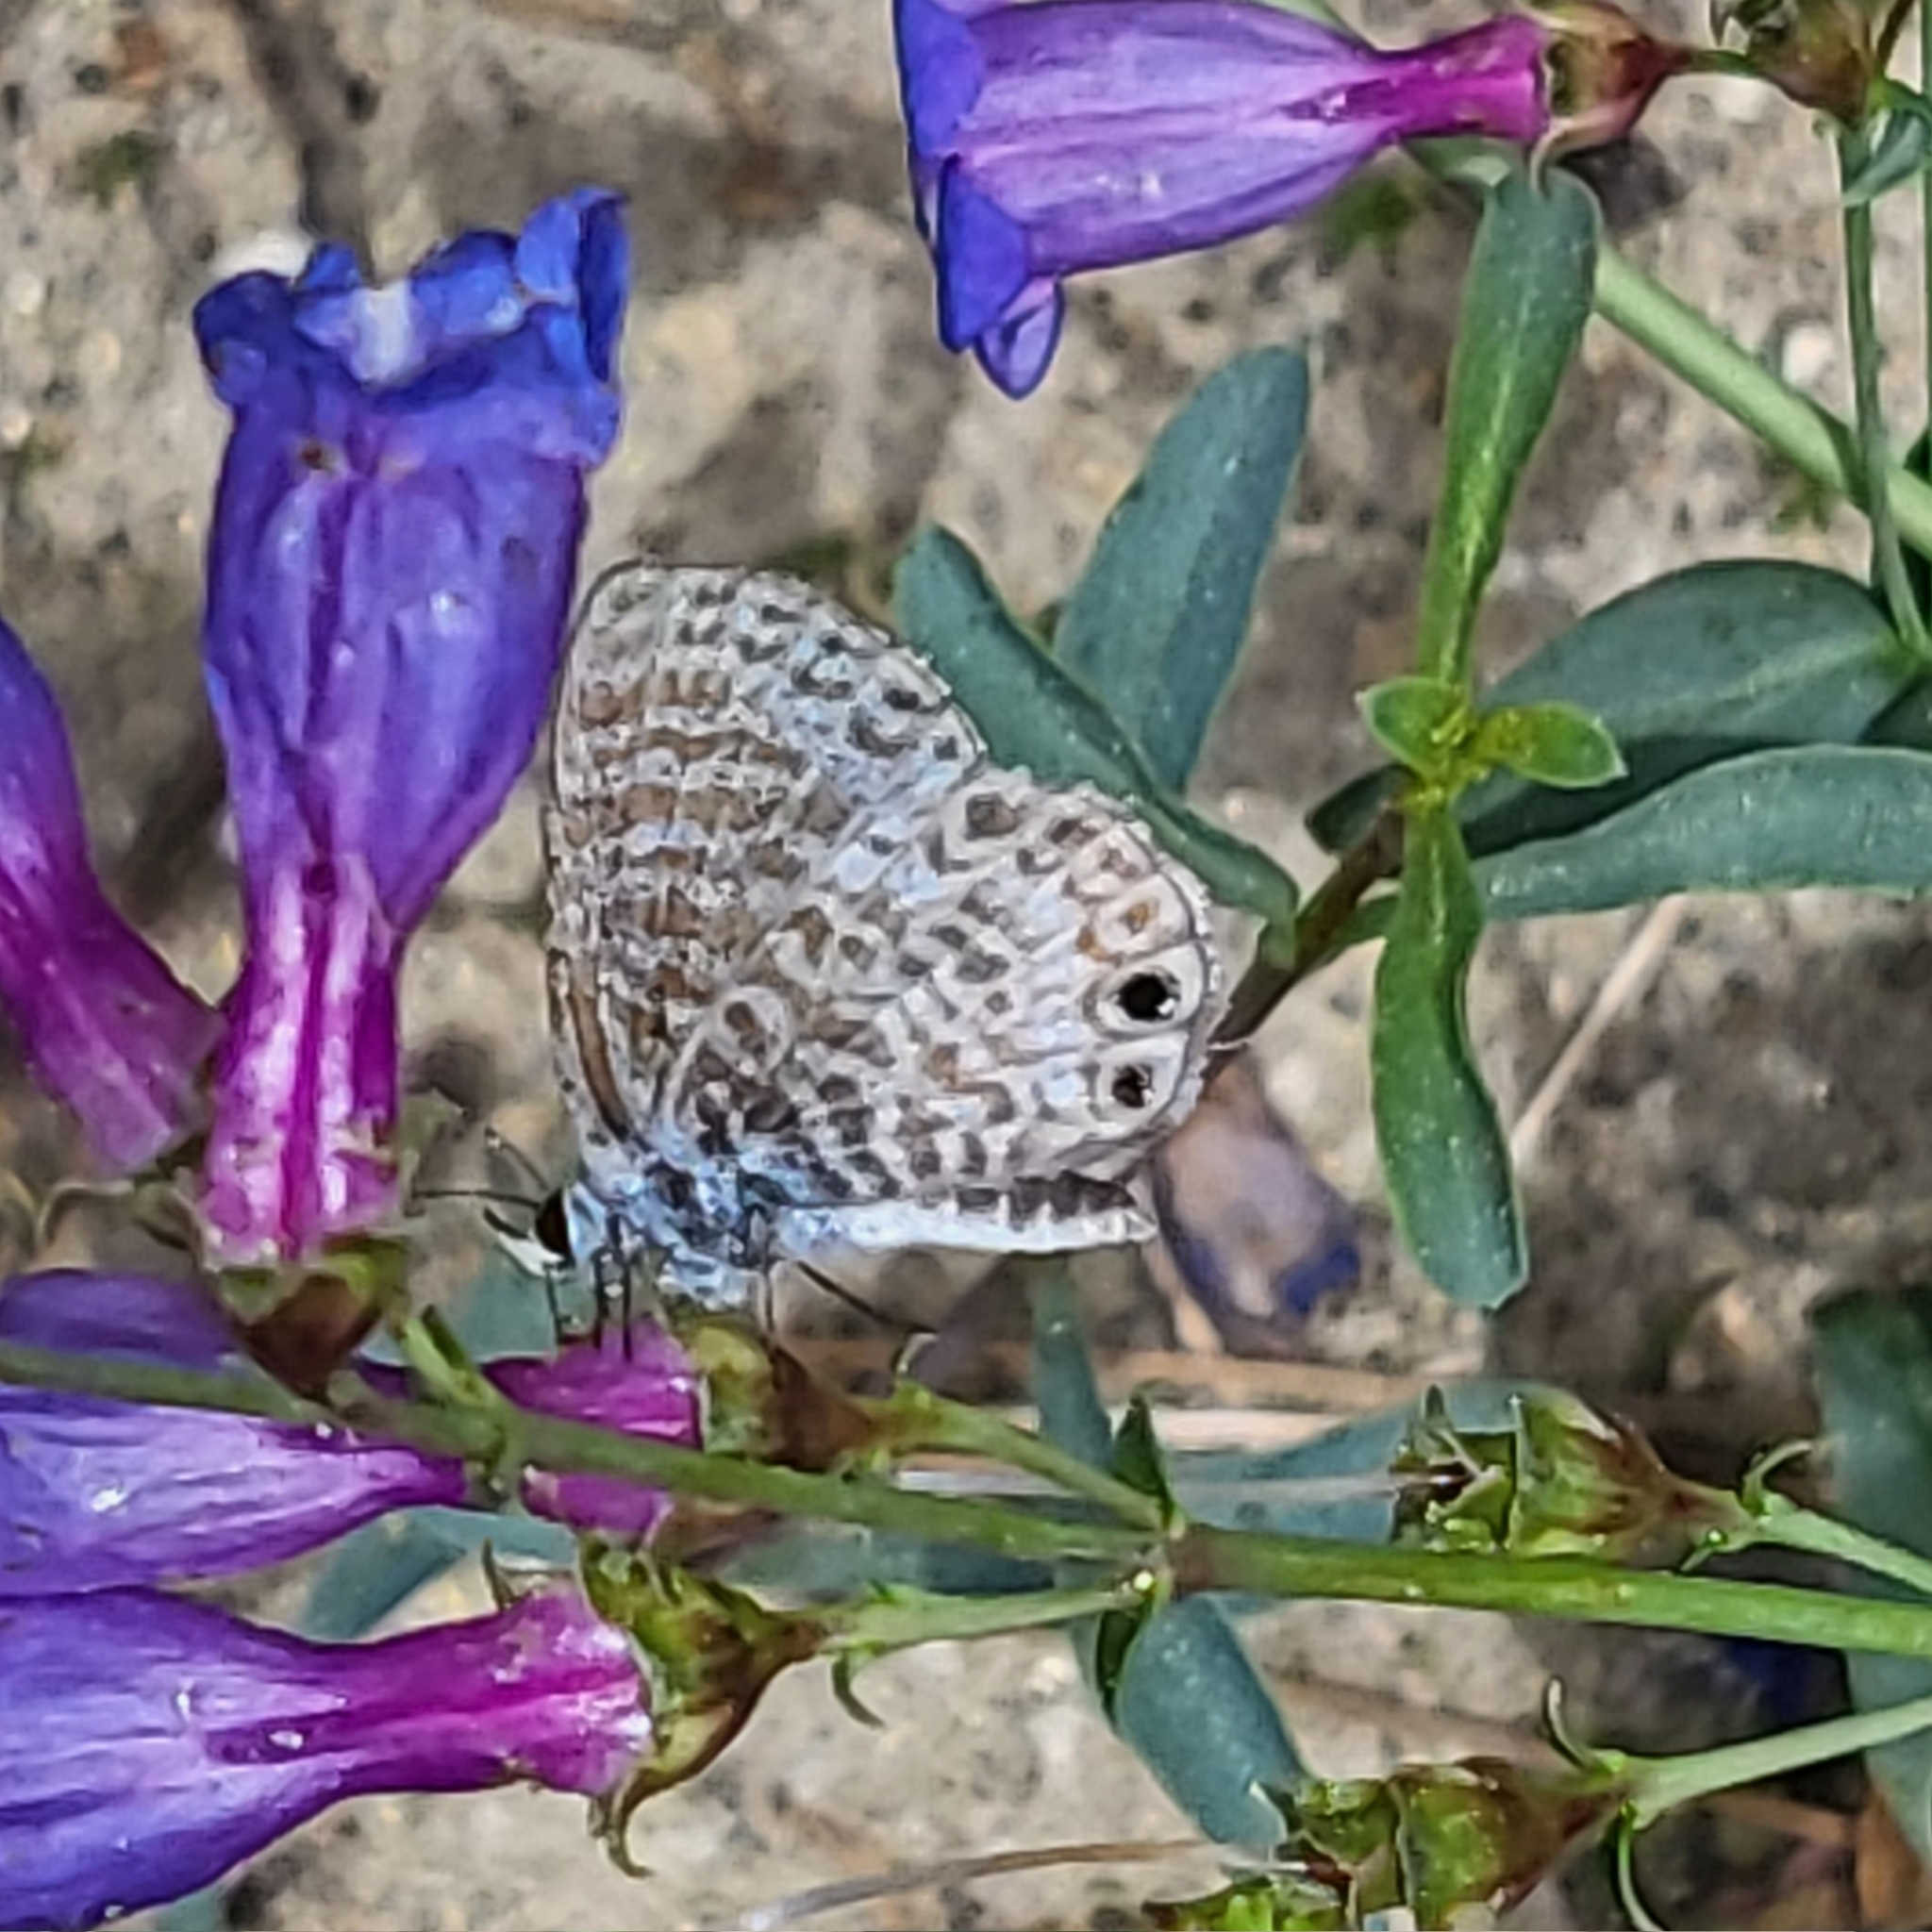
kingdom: Animalia
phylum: Arthropoda
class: Insecta
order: Lepidoptera
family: Lycaenidae
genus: Leptotes
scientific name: Leptotes marina
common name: Marine blue
